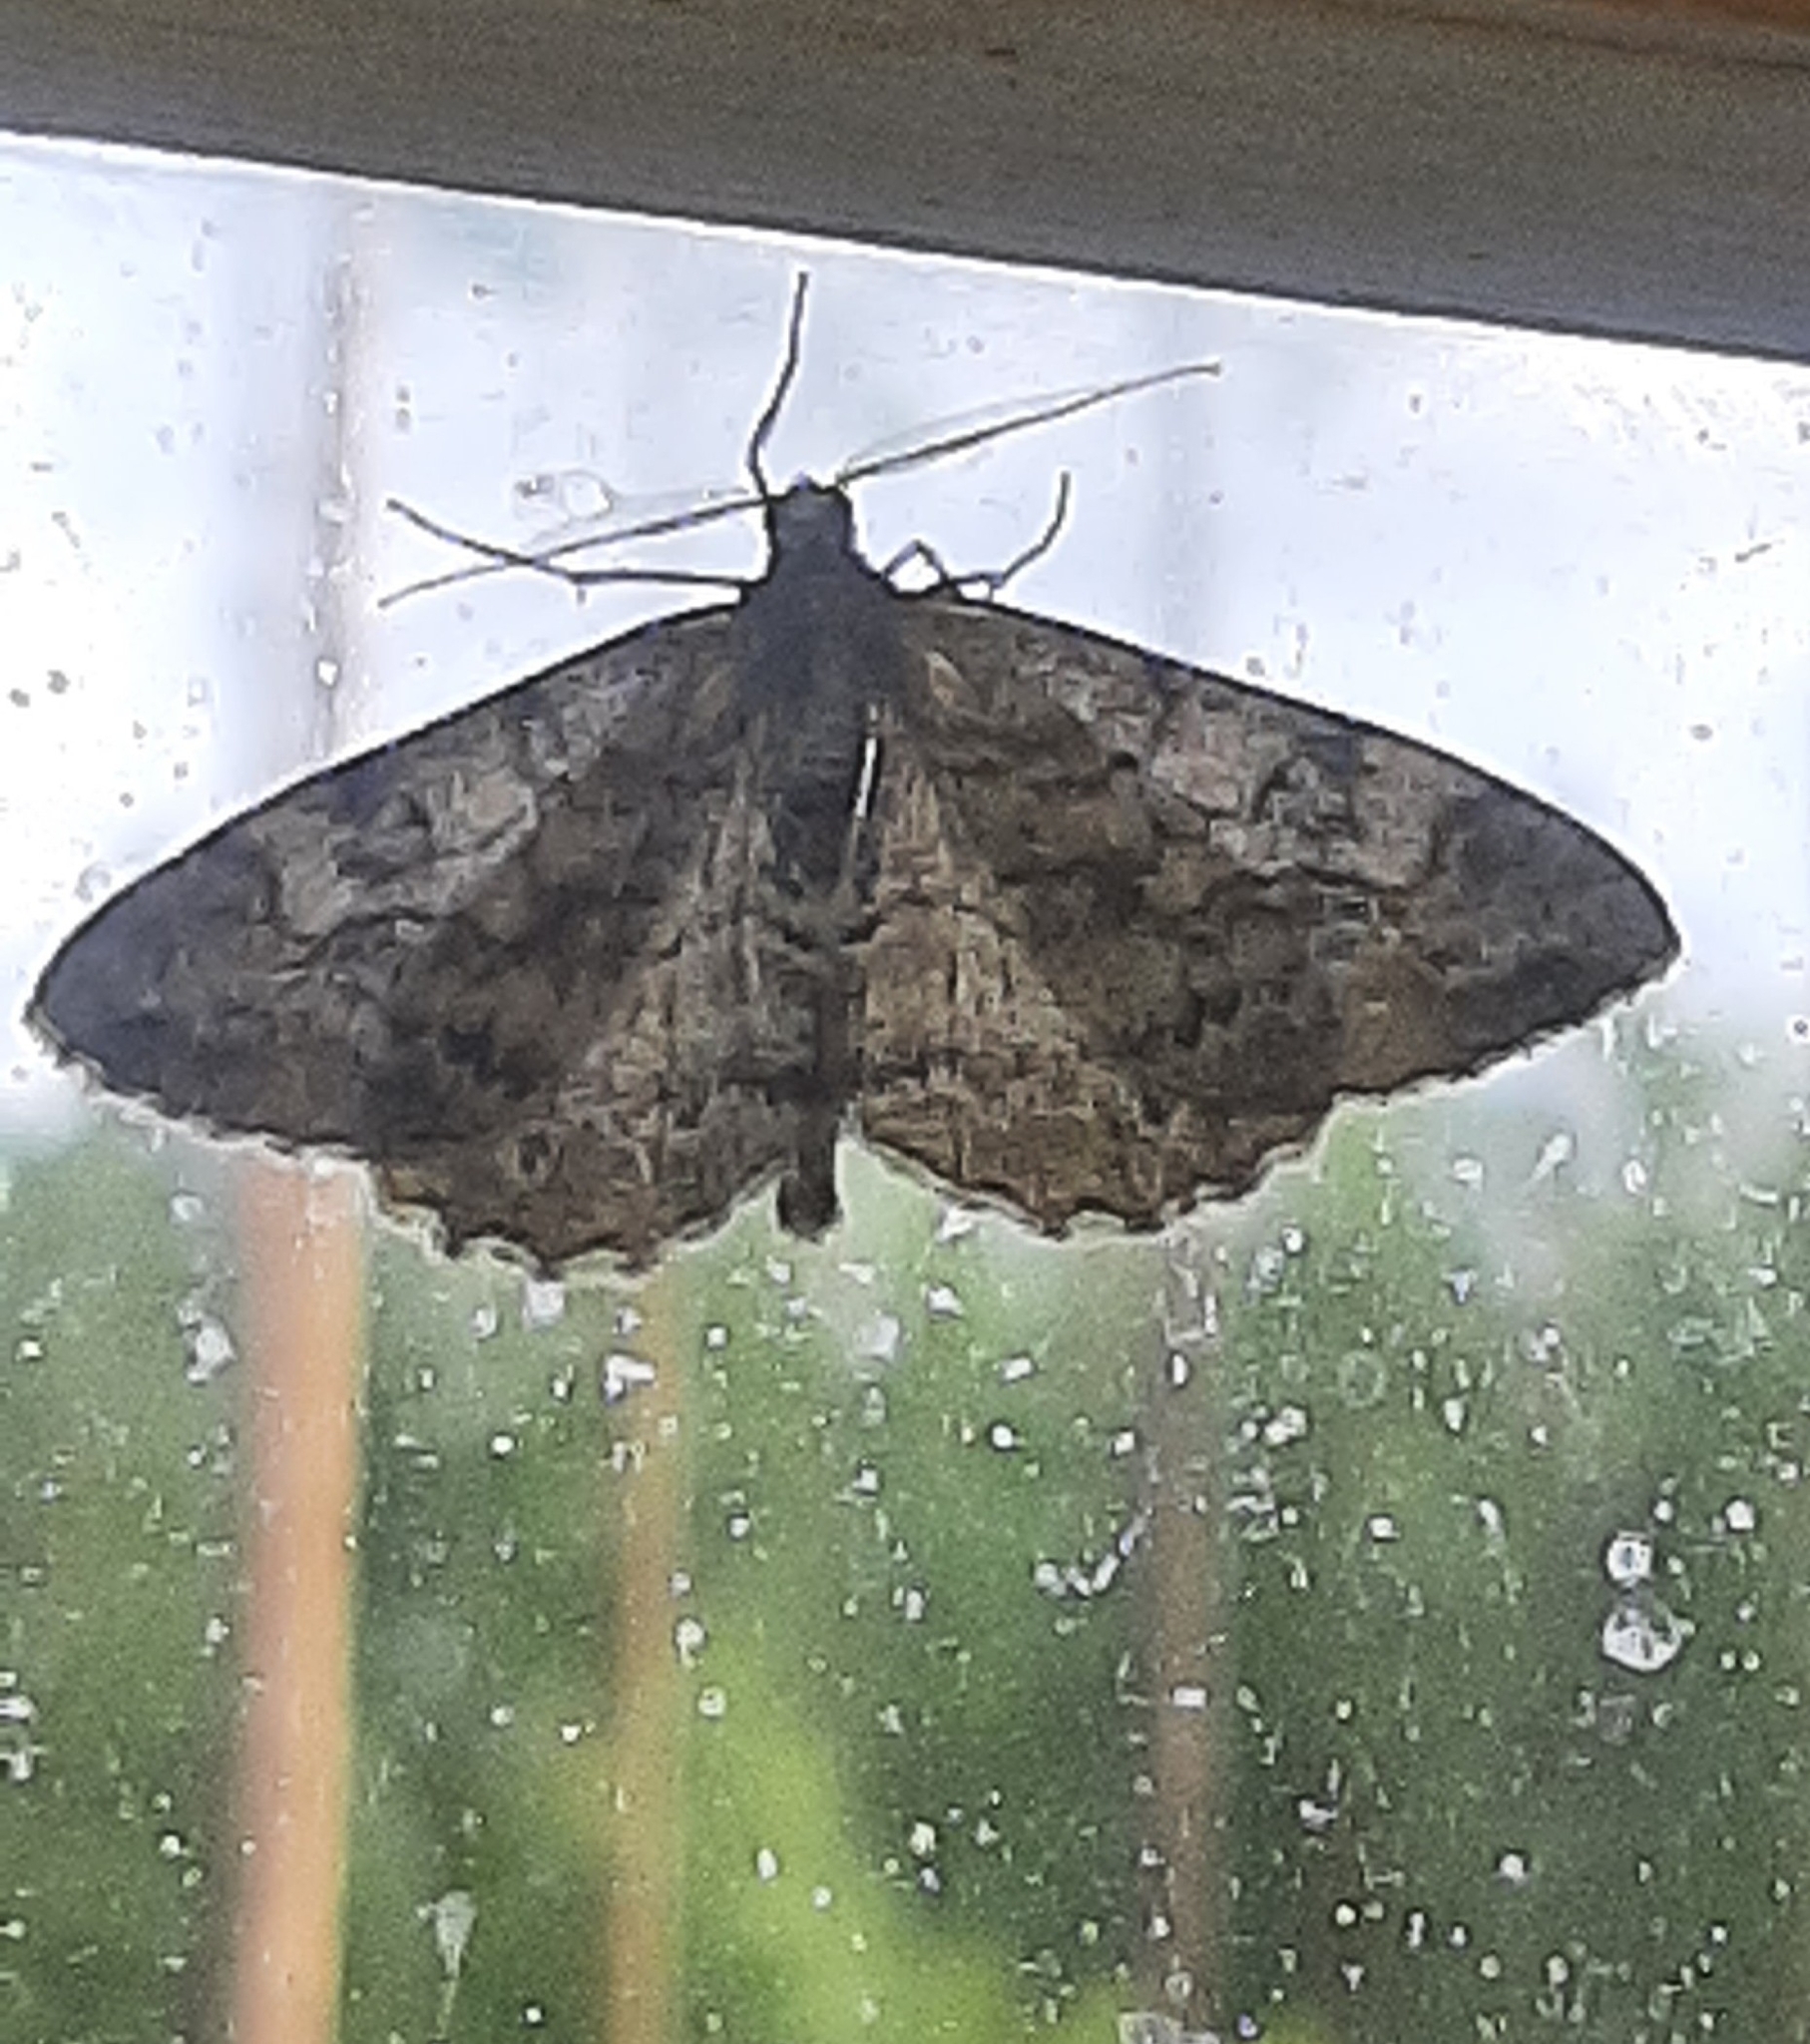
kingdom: Animalia
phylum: Arthropoda
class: Insecta
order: Lepidoptera
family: Geometridae
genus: Alcis
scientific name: Alcis repandata
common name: Mottled beauty
